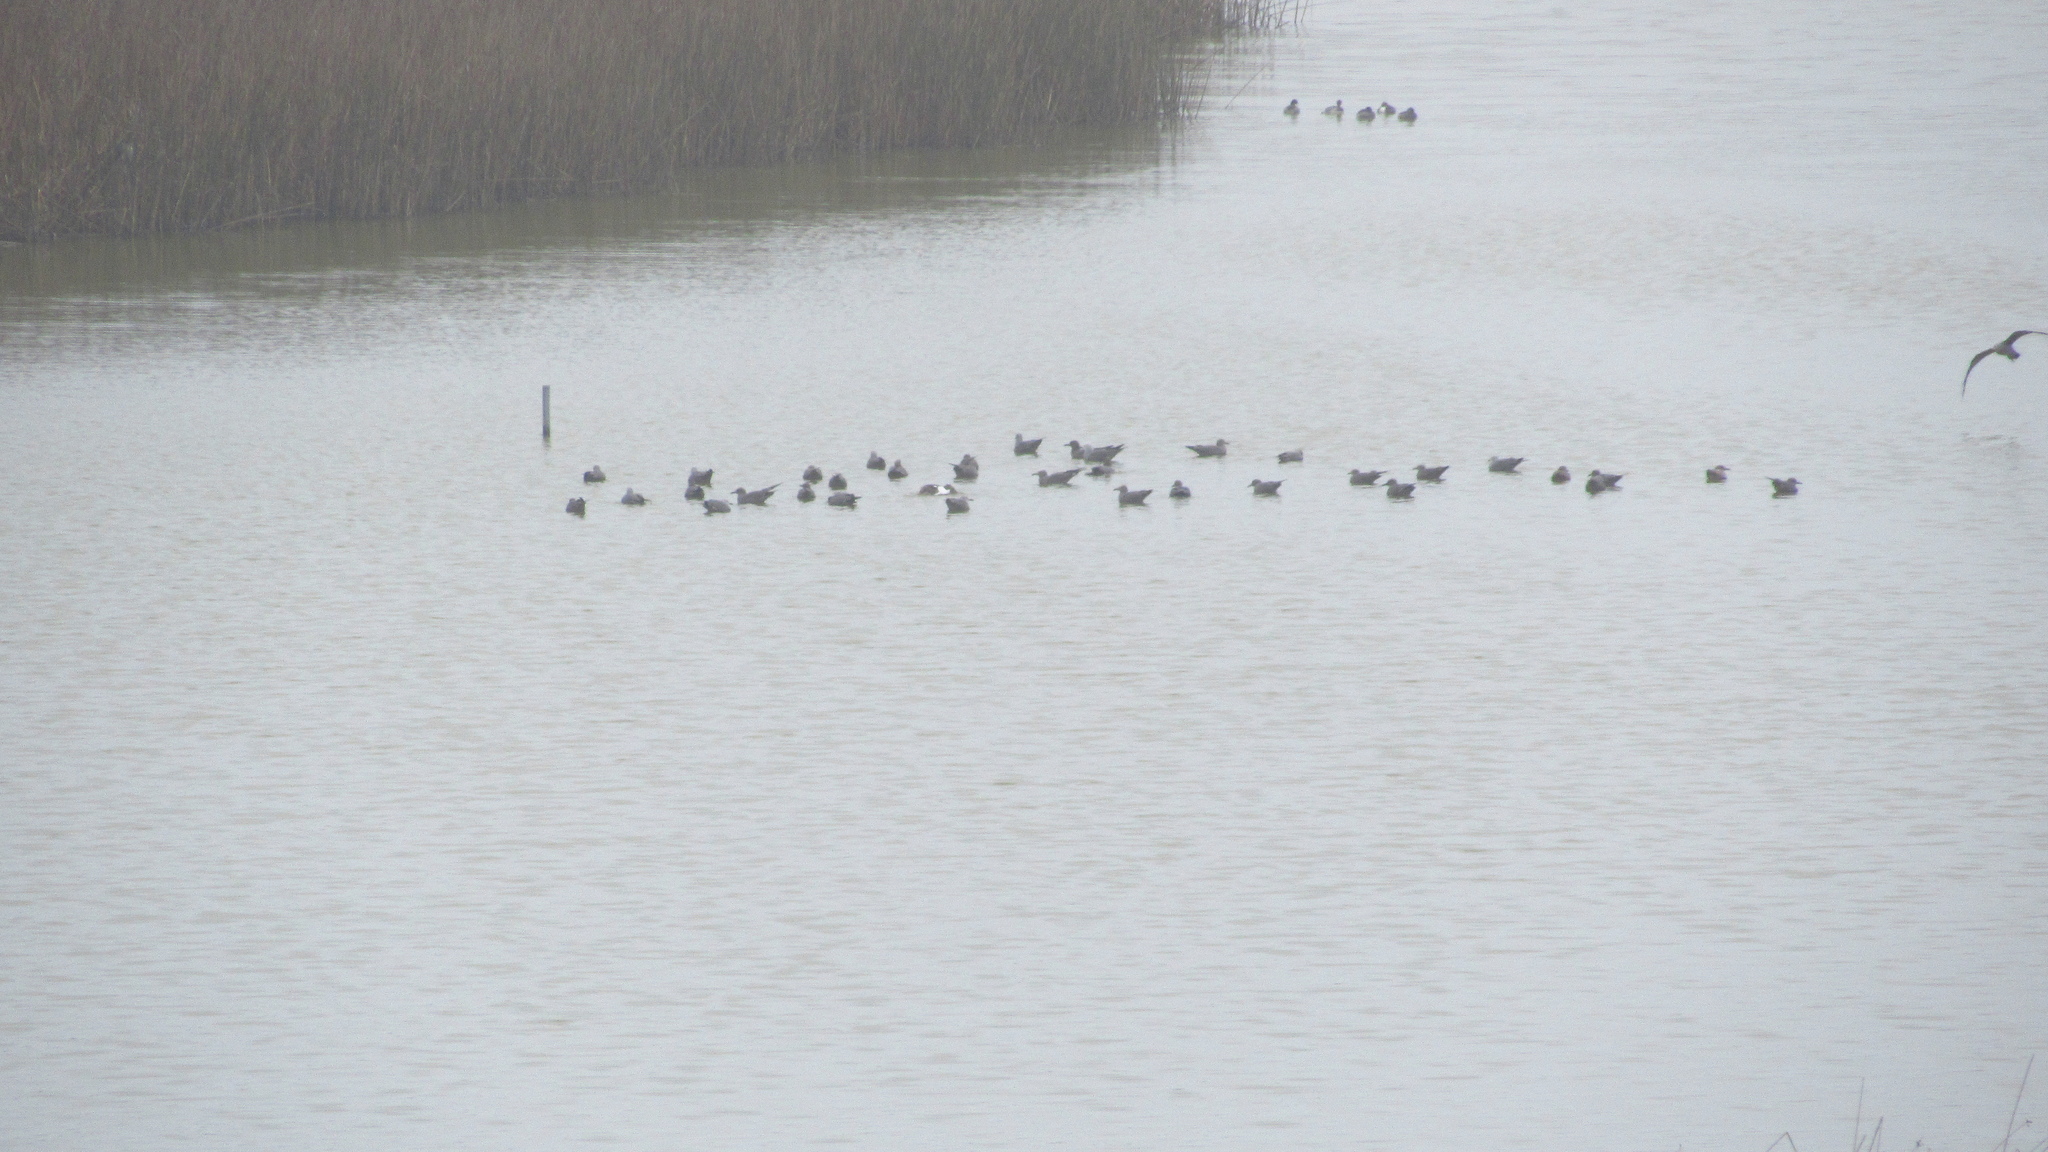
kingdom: Animalia
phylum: Chordata
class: Aves
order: Charadriiformes
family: Laridae
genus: Leucophaeus
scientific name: Leucophaeus modestus
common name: Gray gull
